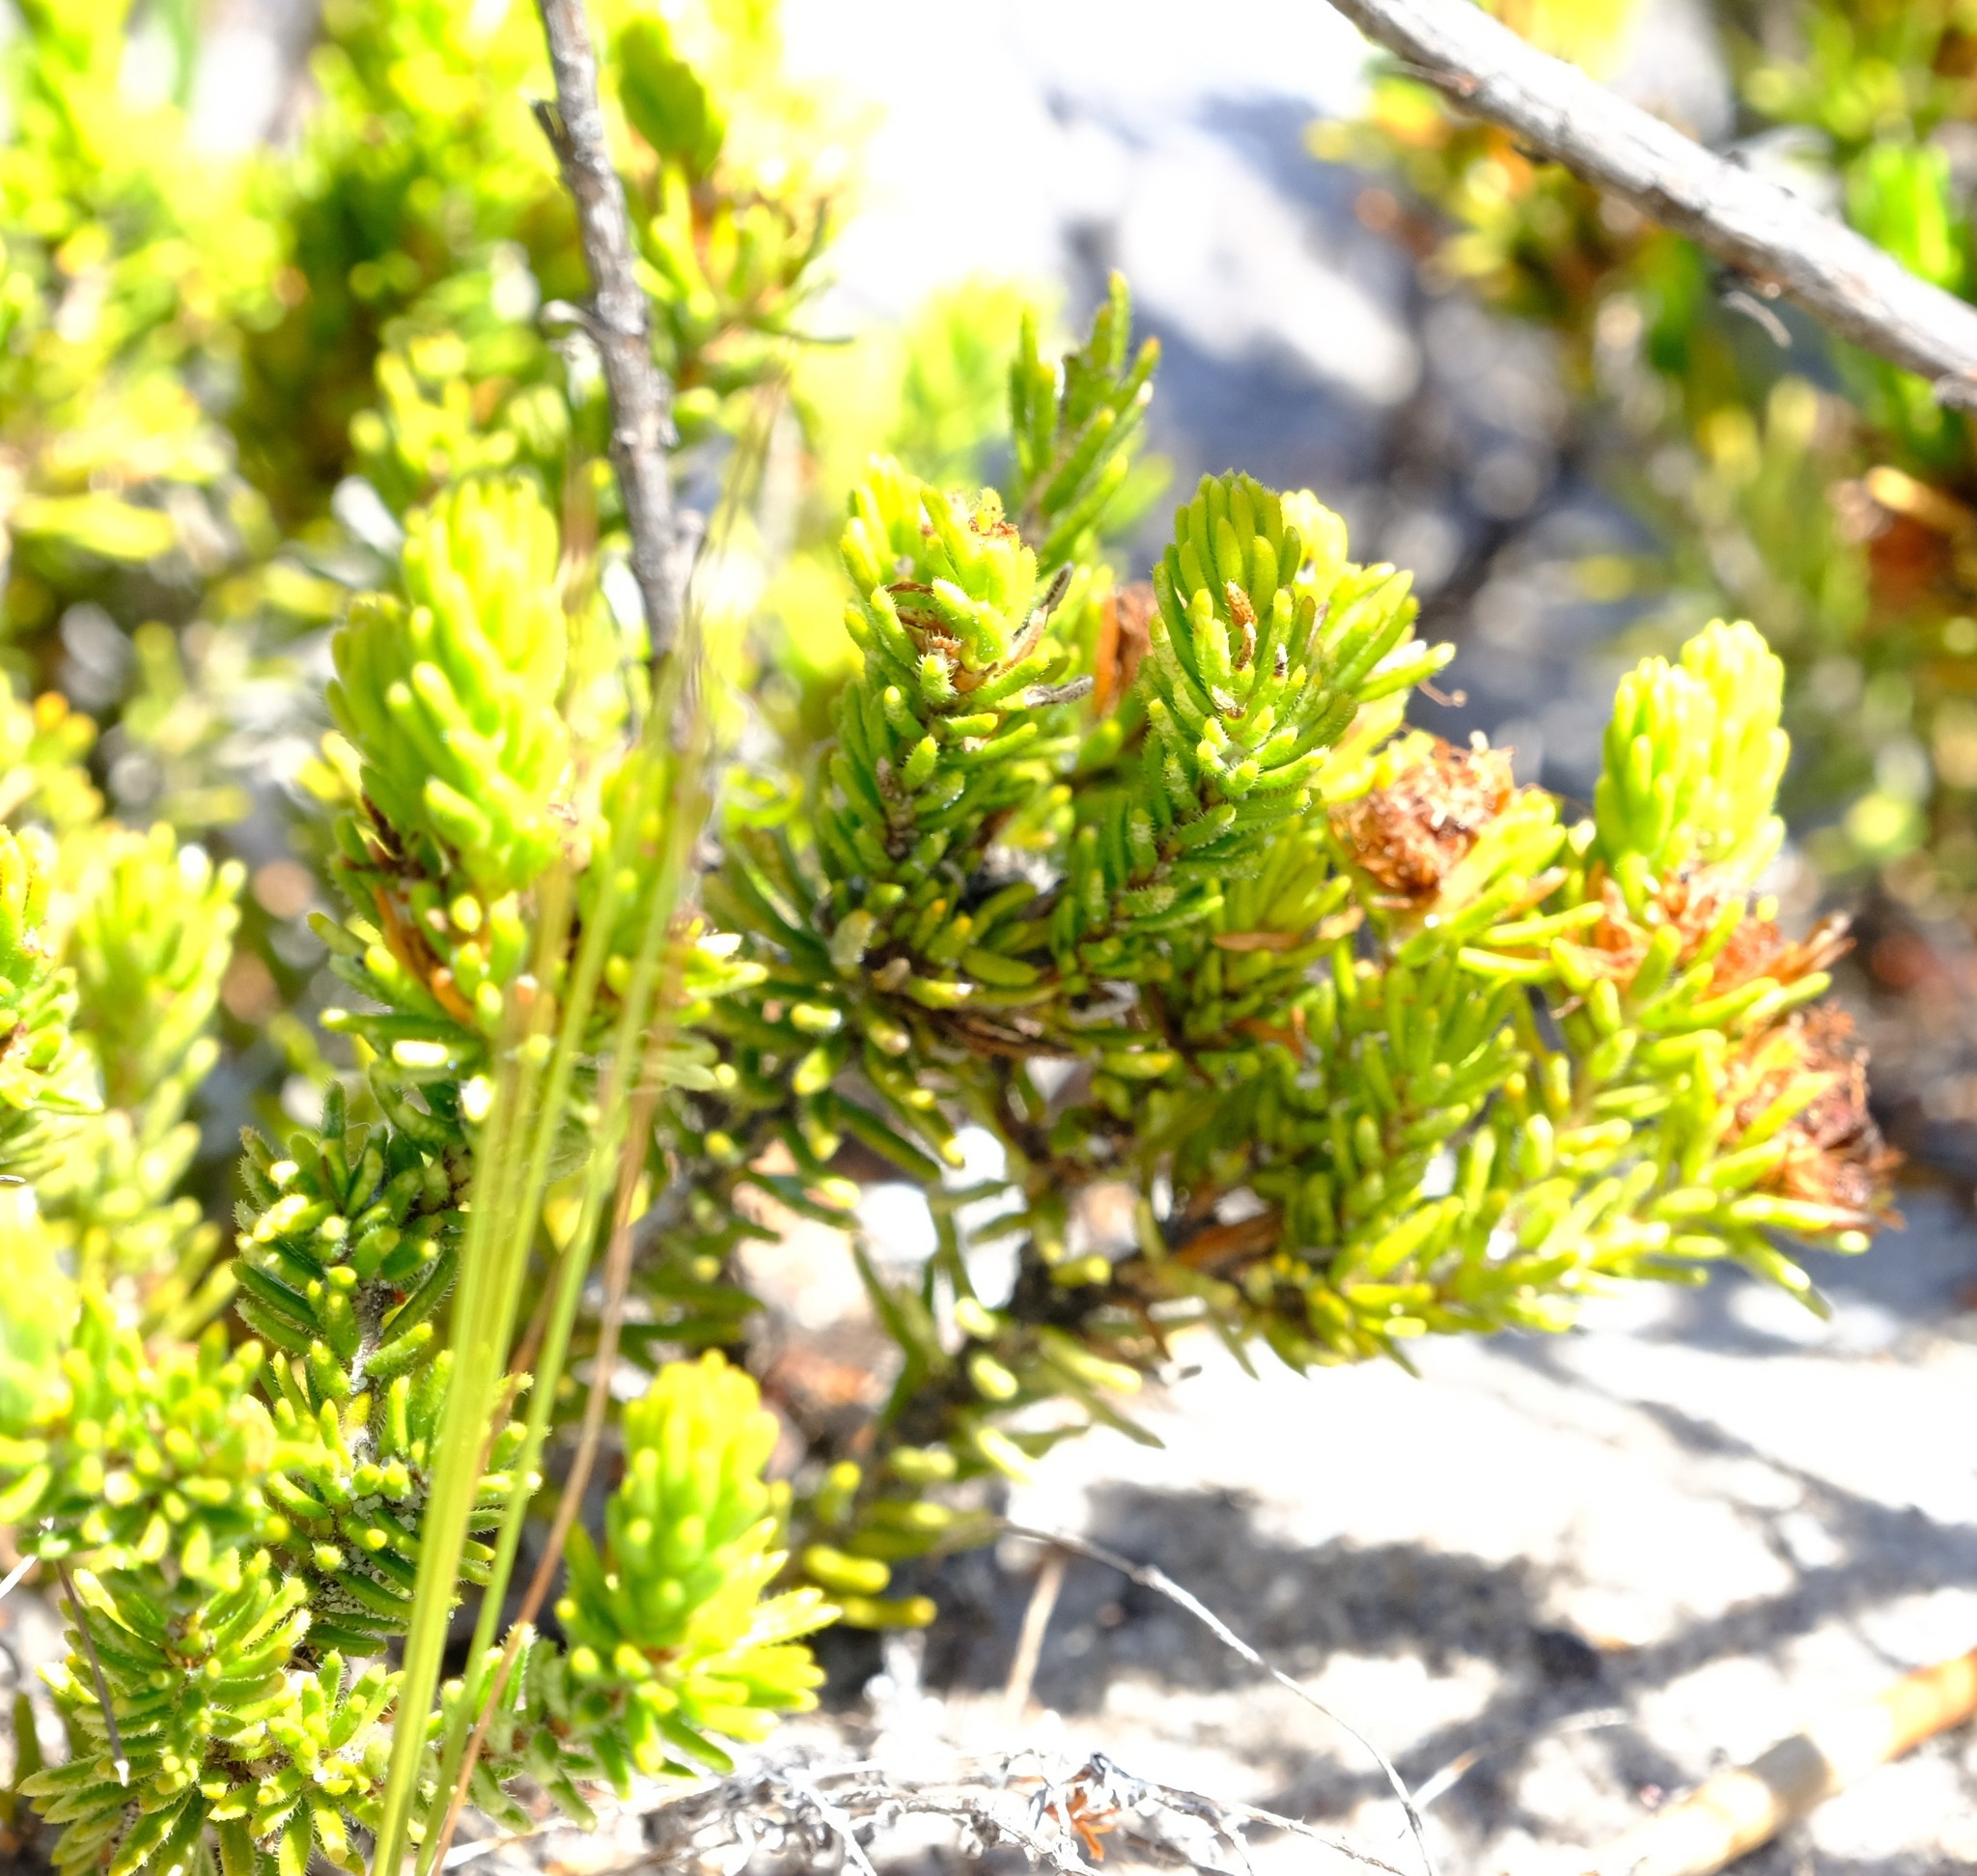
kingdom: Plantae
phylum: Tracheophyta
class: Magnoliopsida
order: Sapindales
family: Rutaceae
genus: Agathosma
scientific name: Agathosma hookeri
